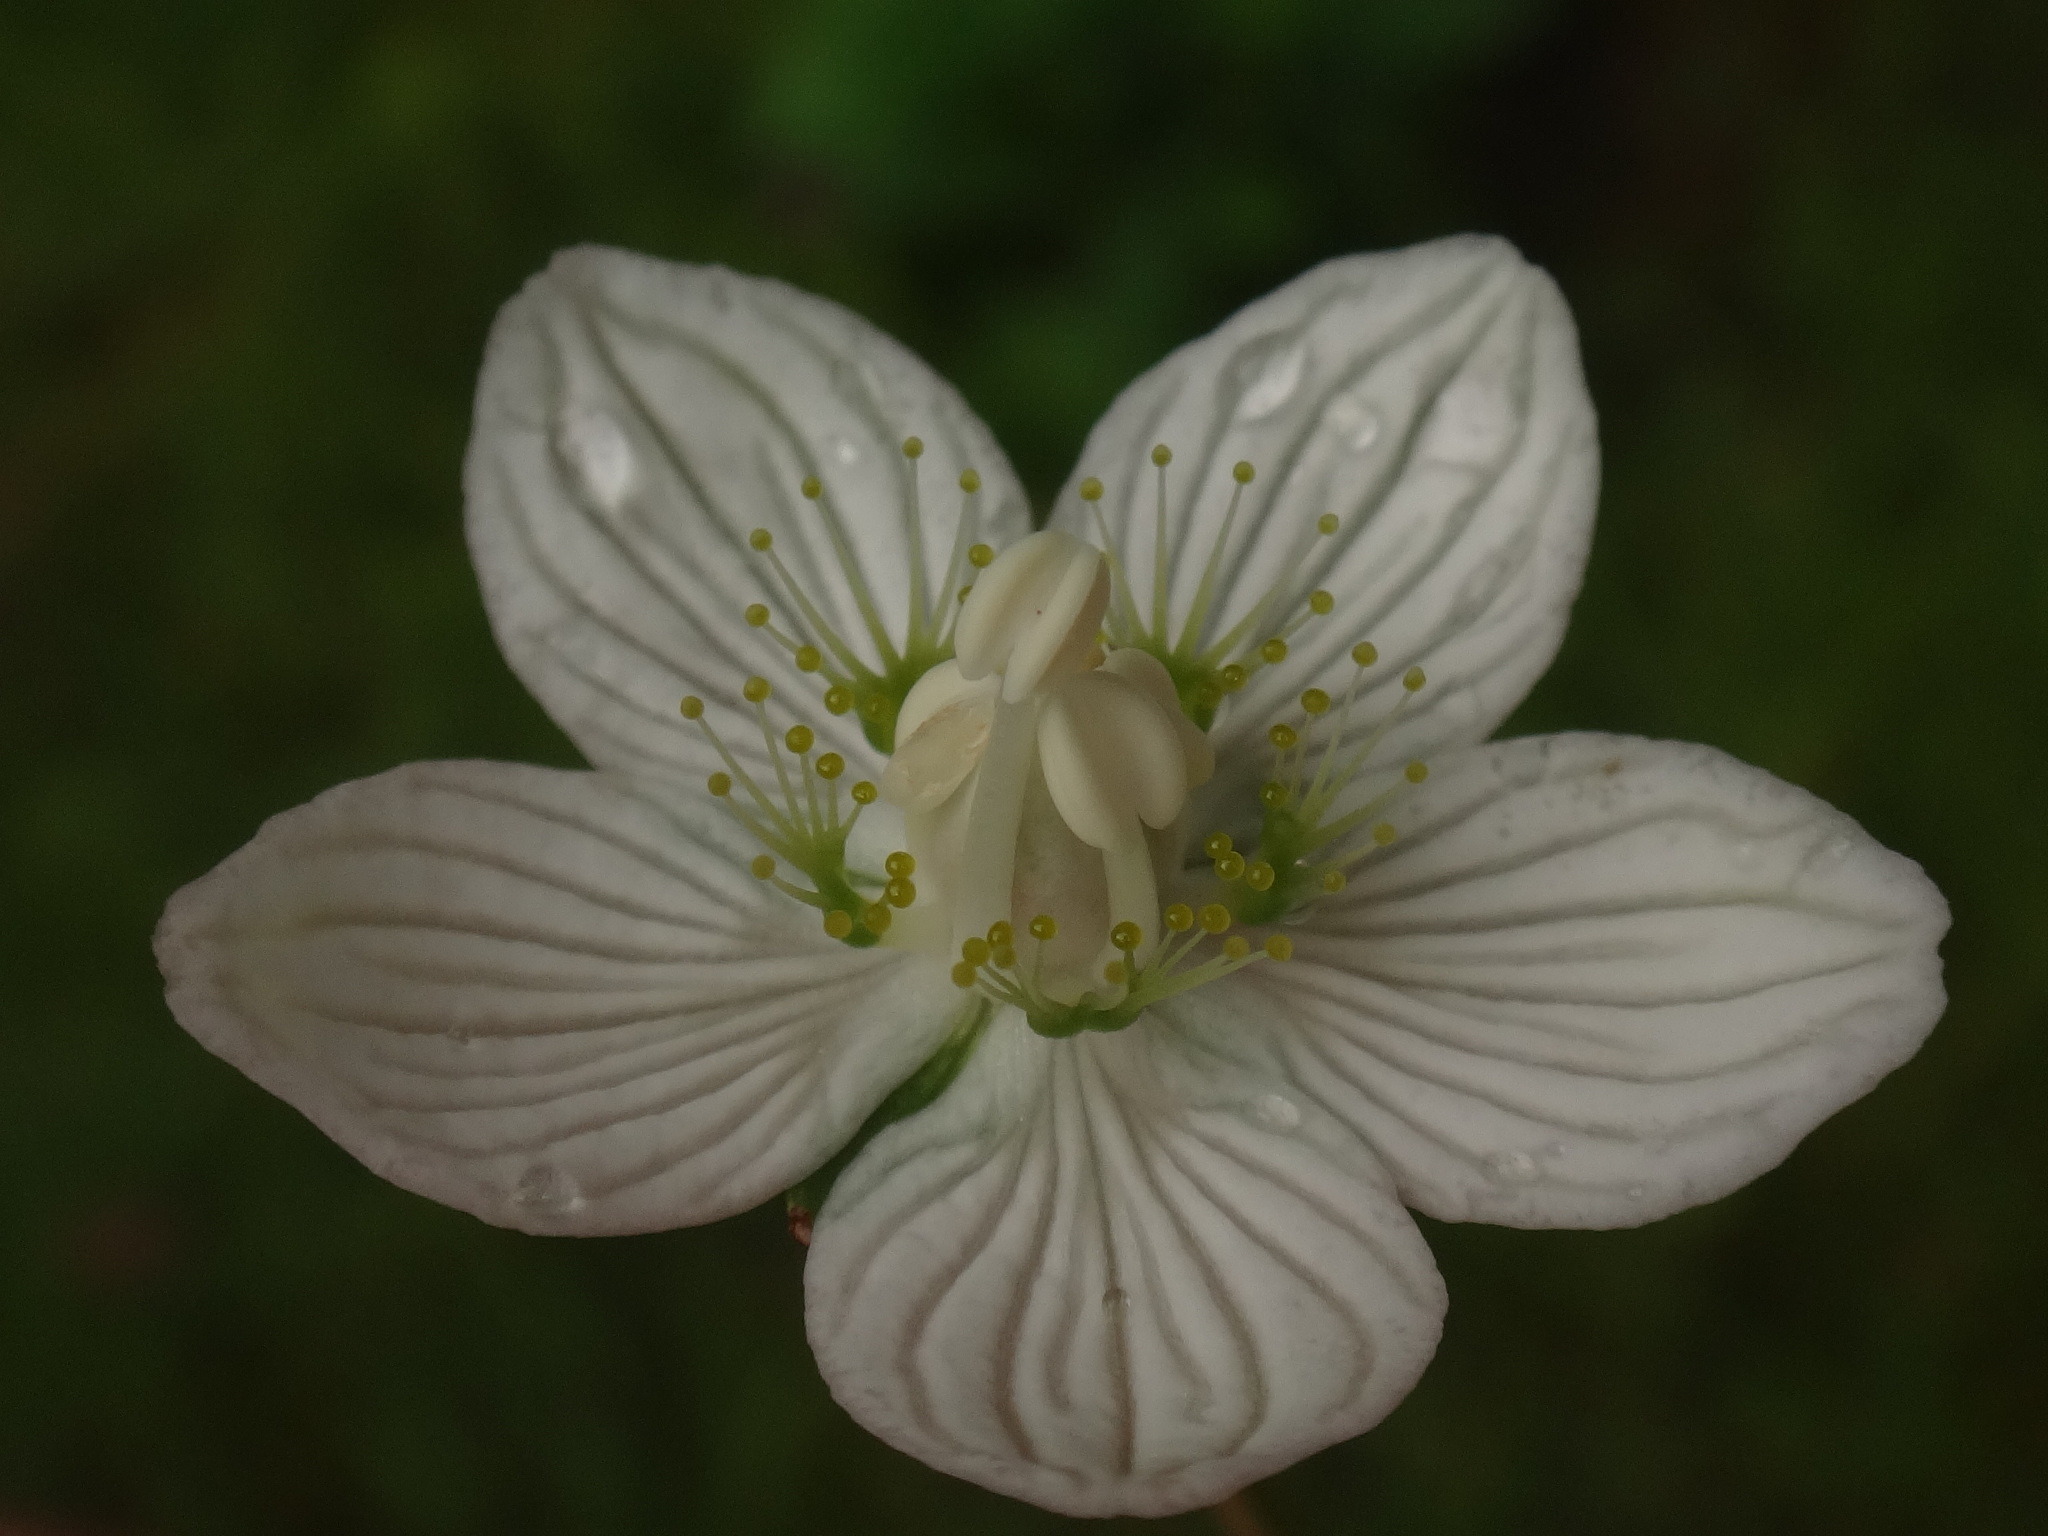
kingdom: Plantae
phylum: Tracheophyta
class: Magnoliopsida
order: Celastrales
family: Parnassiaceae
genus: Parnassia
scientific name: Parnassia palustris
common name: Grass-of-parnassus
